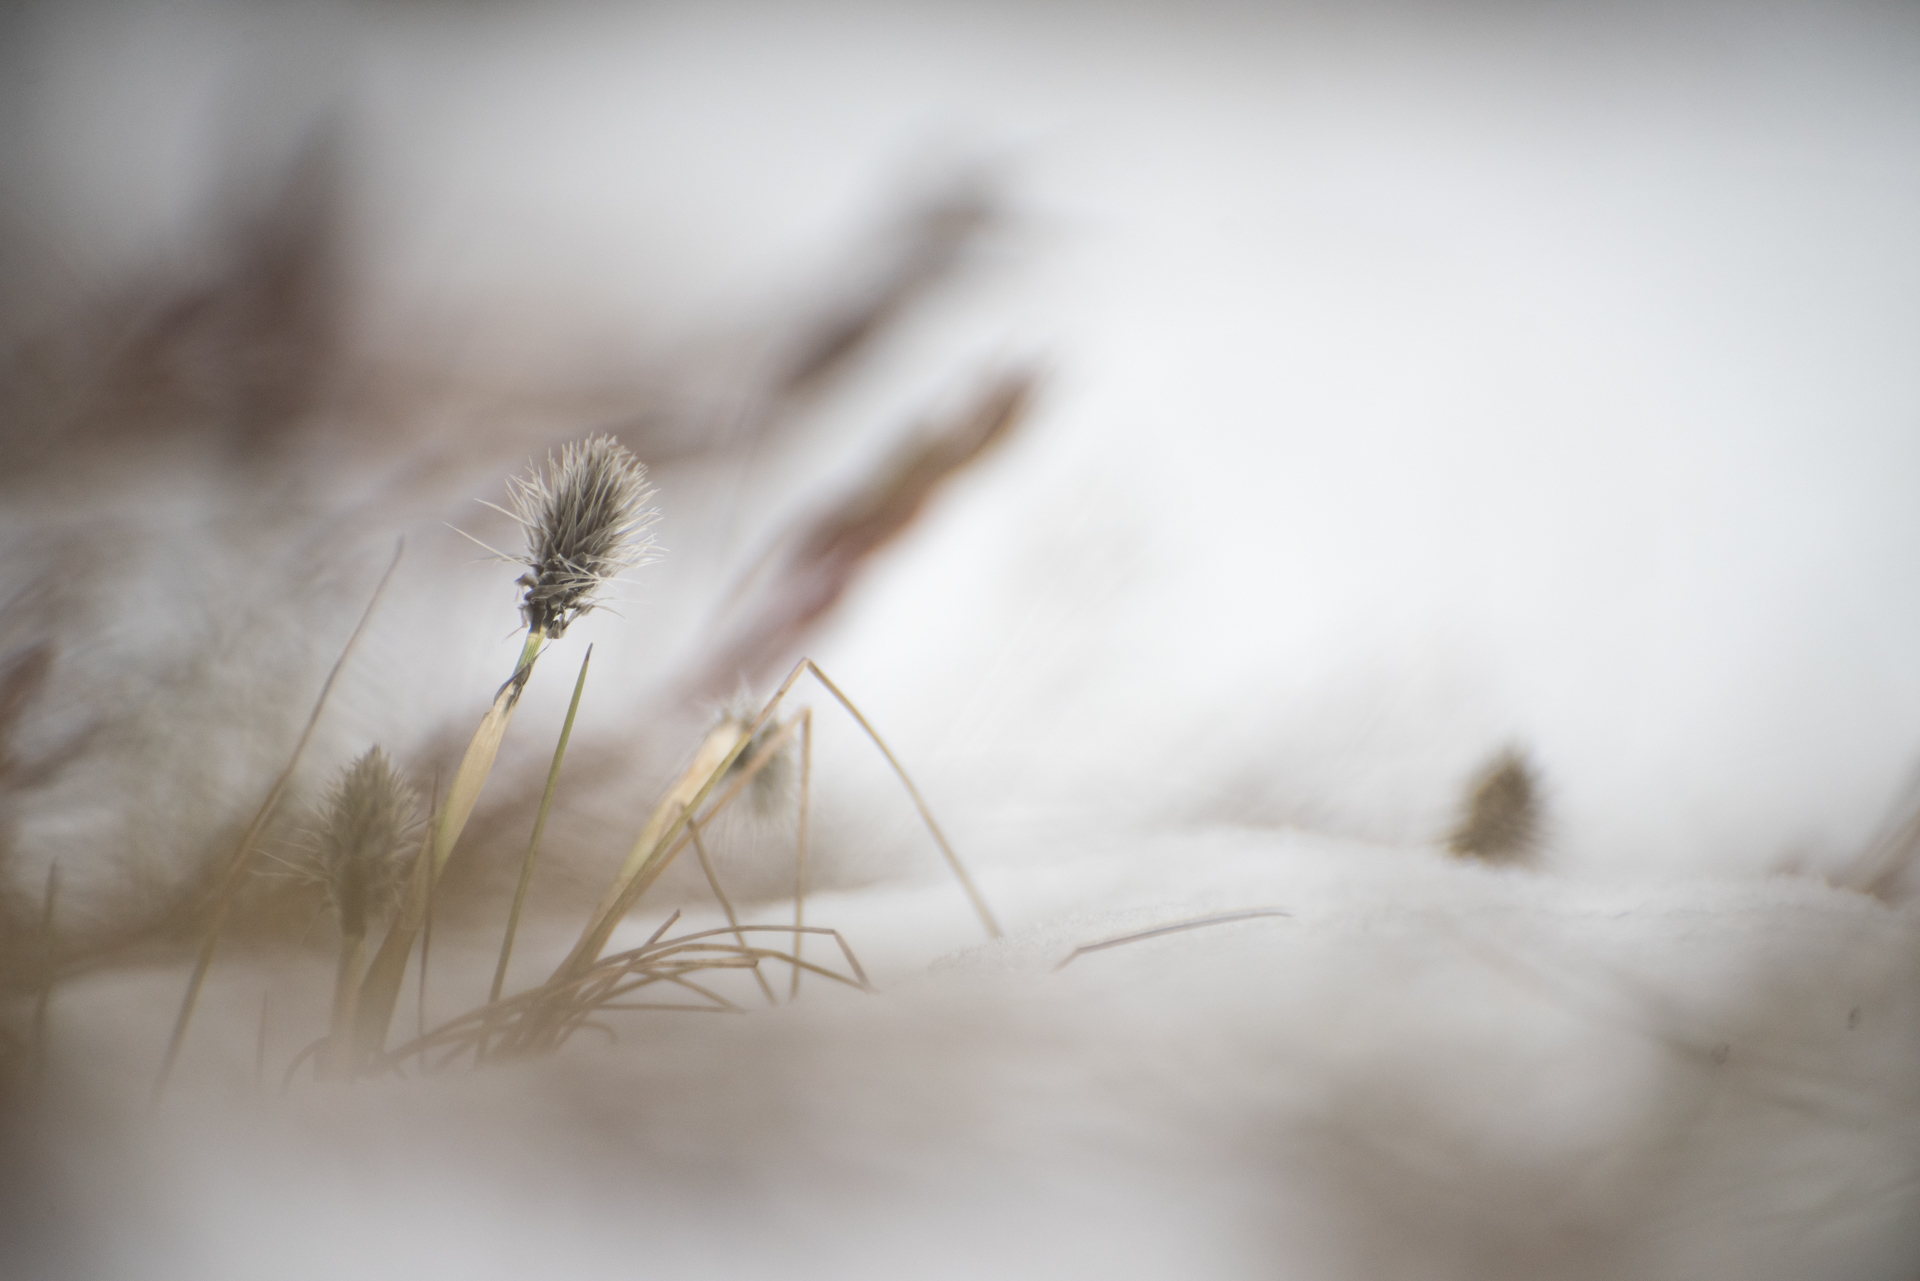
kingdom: Plantae
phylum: Tracheophyta
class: Liliopsida
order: Poales
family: Cyperaceae
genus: Eriophorum
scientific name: Eriophorum vaginatum
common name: Hare's-tail cottongrass
